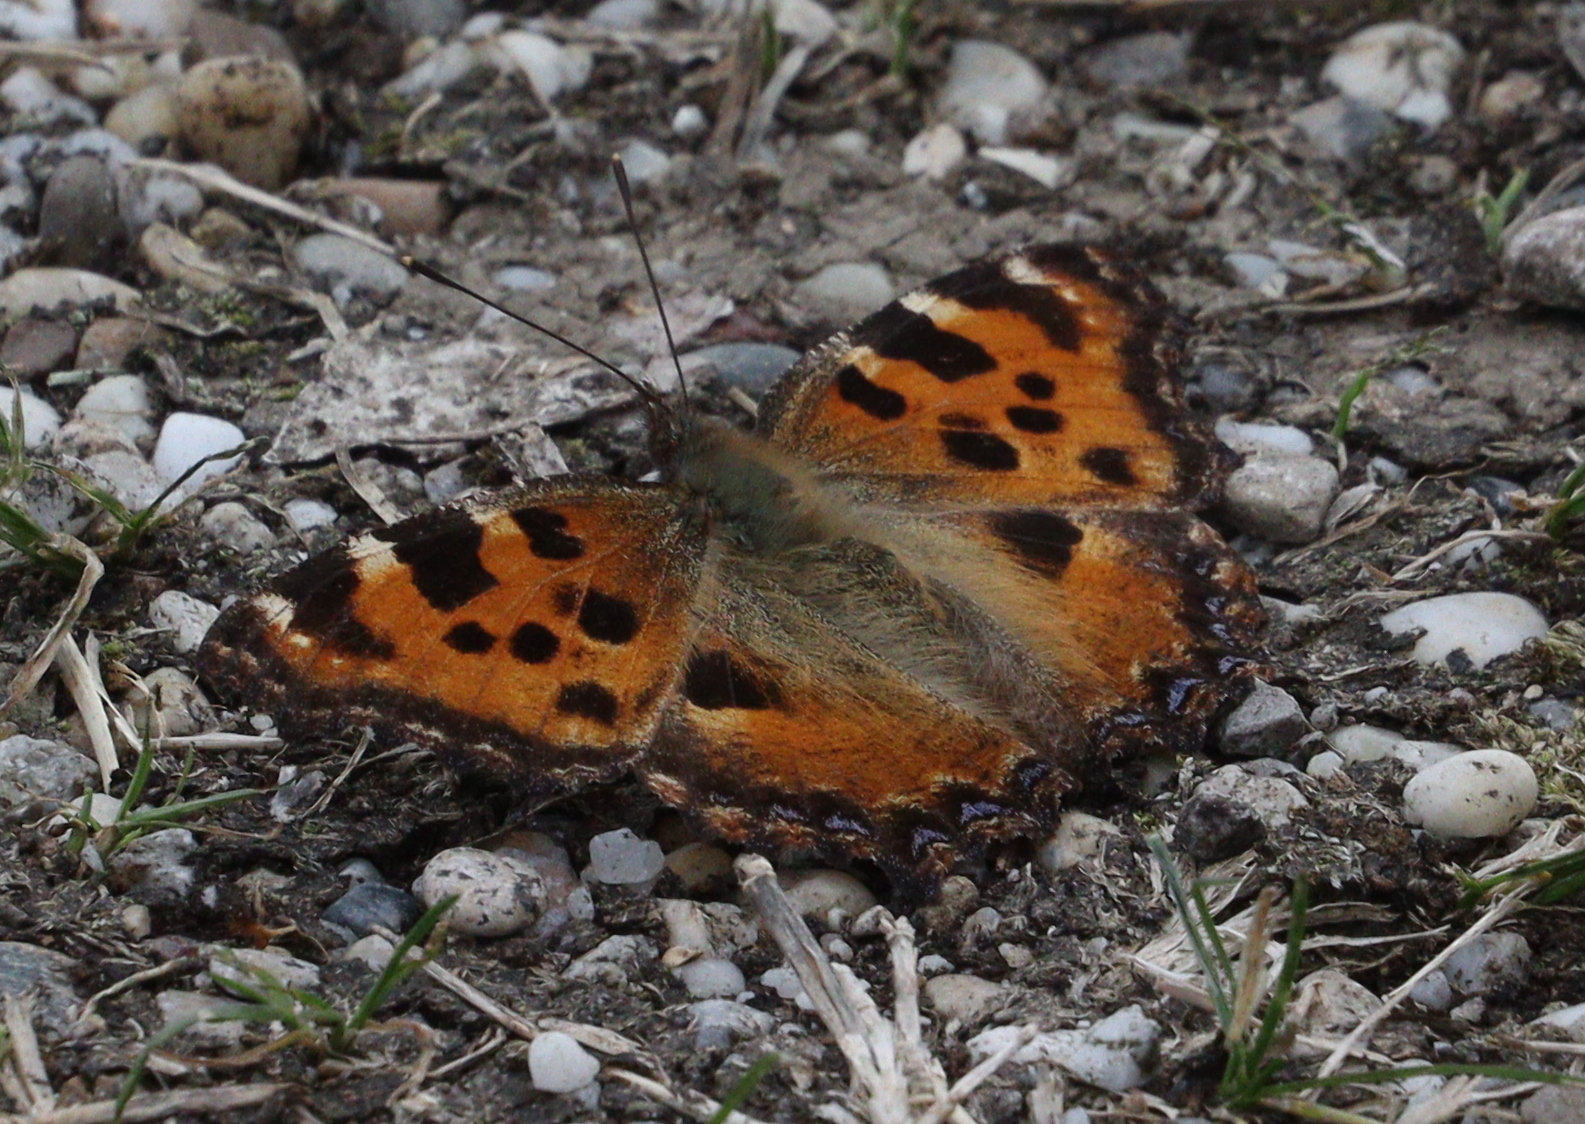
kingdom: Animalia
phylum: Arthropoda
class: Insecta
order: Lepidoptera
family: Nymphalidae
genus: Nymphalis
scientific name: Nymphalis polychloros
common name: Large tortoiseshell
